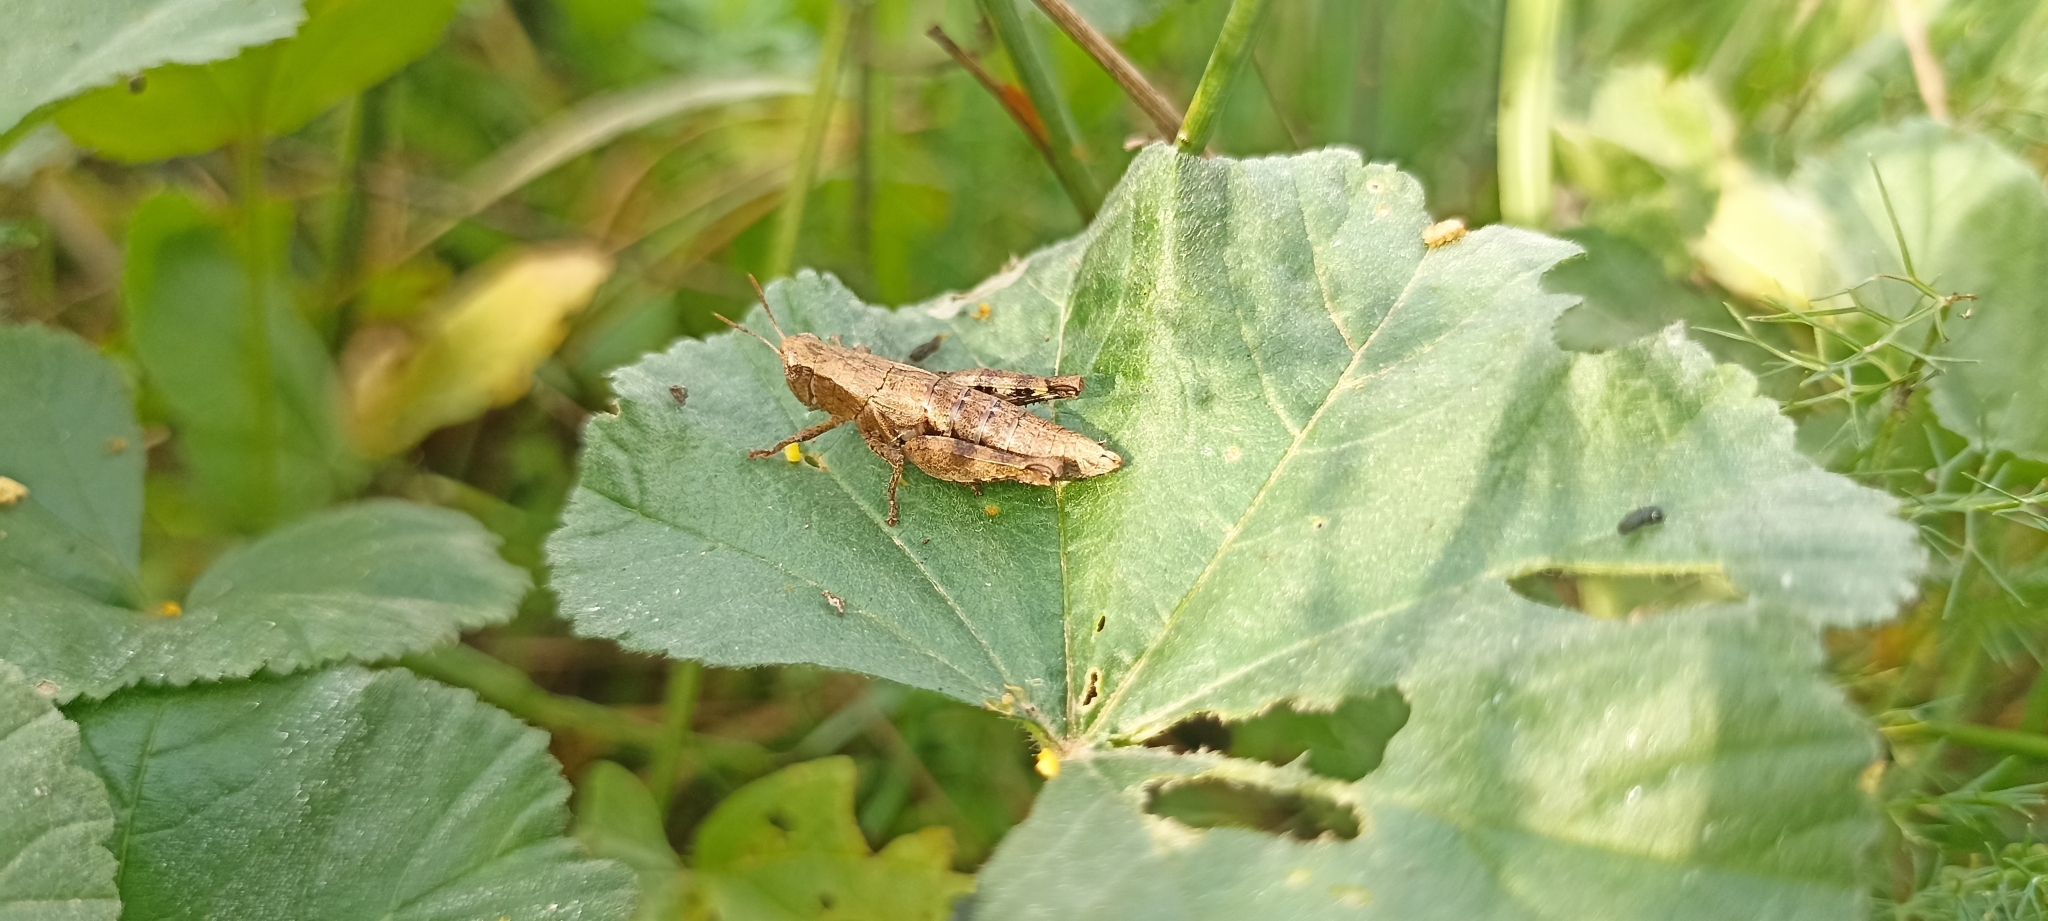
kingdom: Animalia
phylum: Arthropoda
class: Insecta
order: Orthoptera
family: Acrididae
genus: Pezotettix
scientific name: Pezotettix giornae
